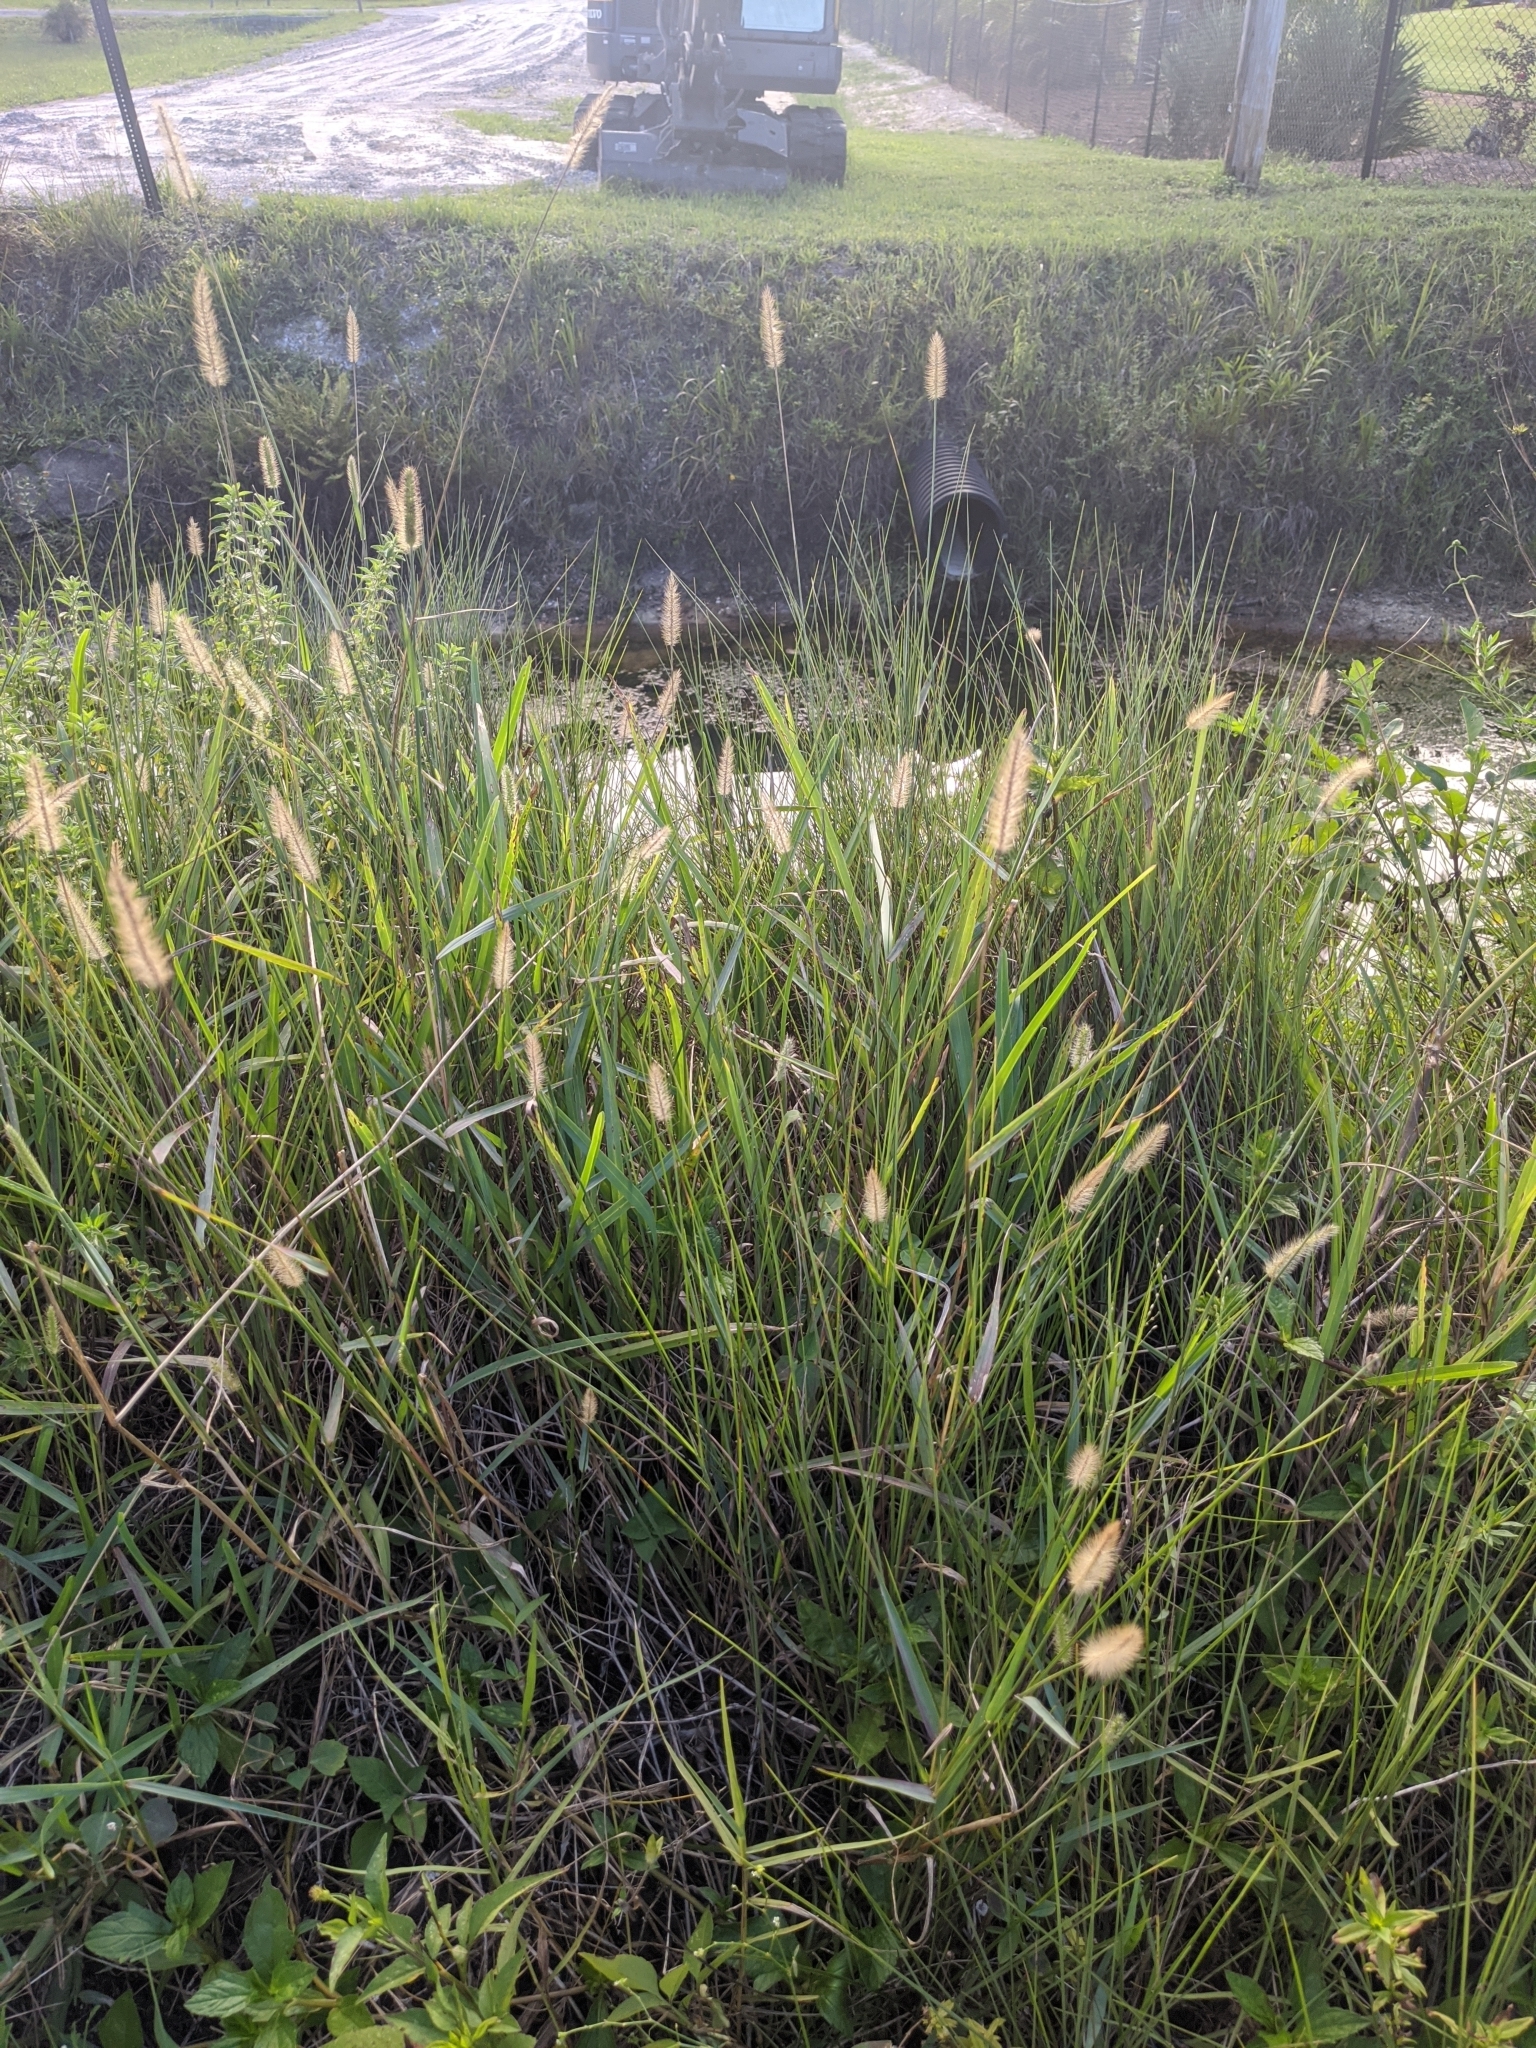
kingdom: Plantae
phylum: Tracheophyta
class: Liliopsida
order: Poales
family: Poaceae
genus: Setaria
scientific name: Setaria parviflora
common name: Knotroot bristle-grass
